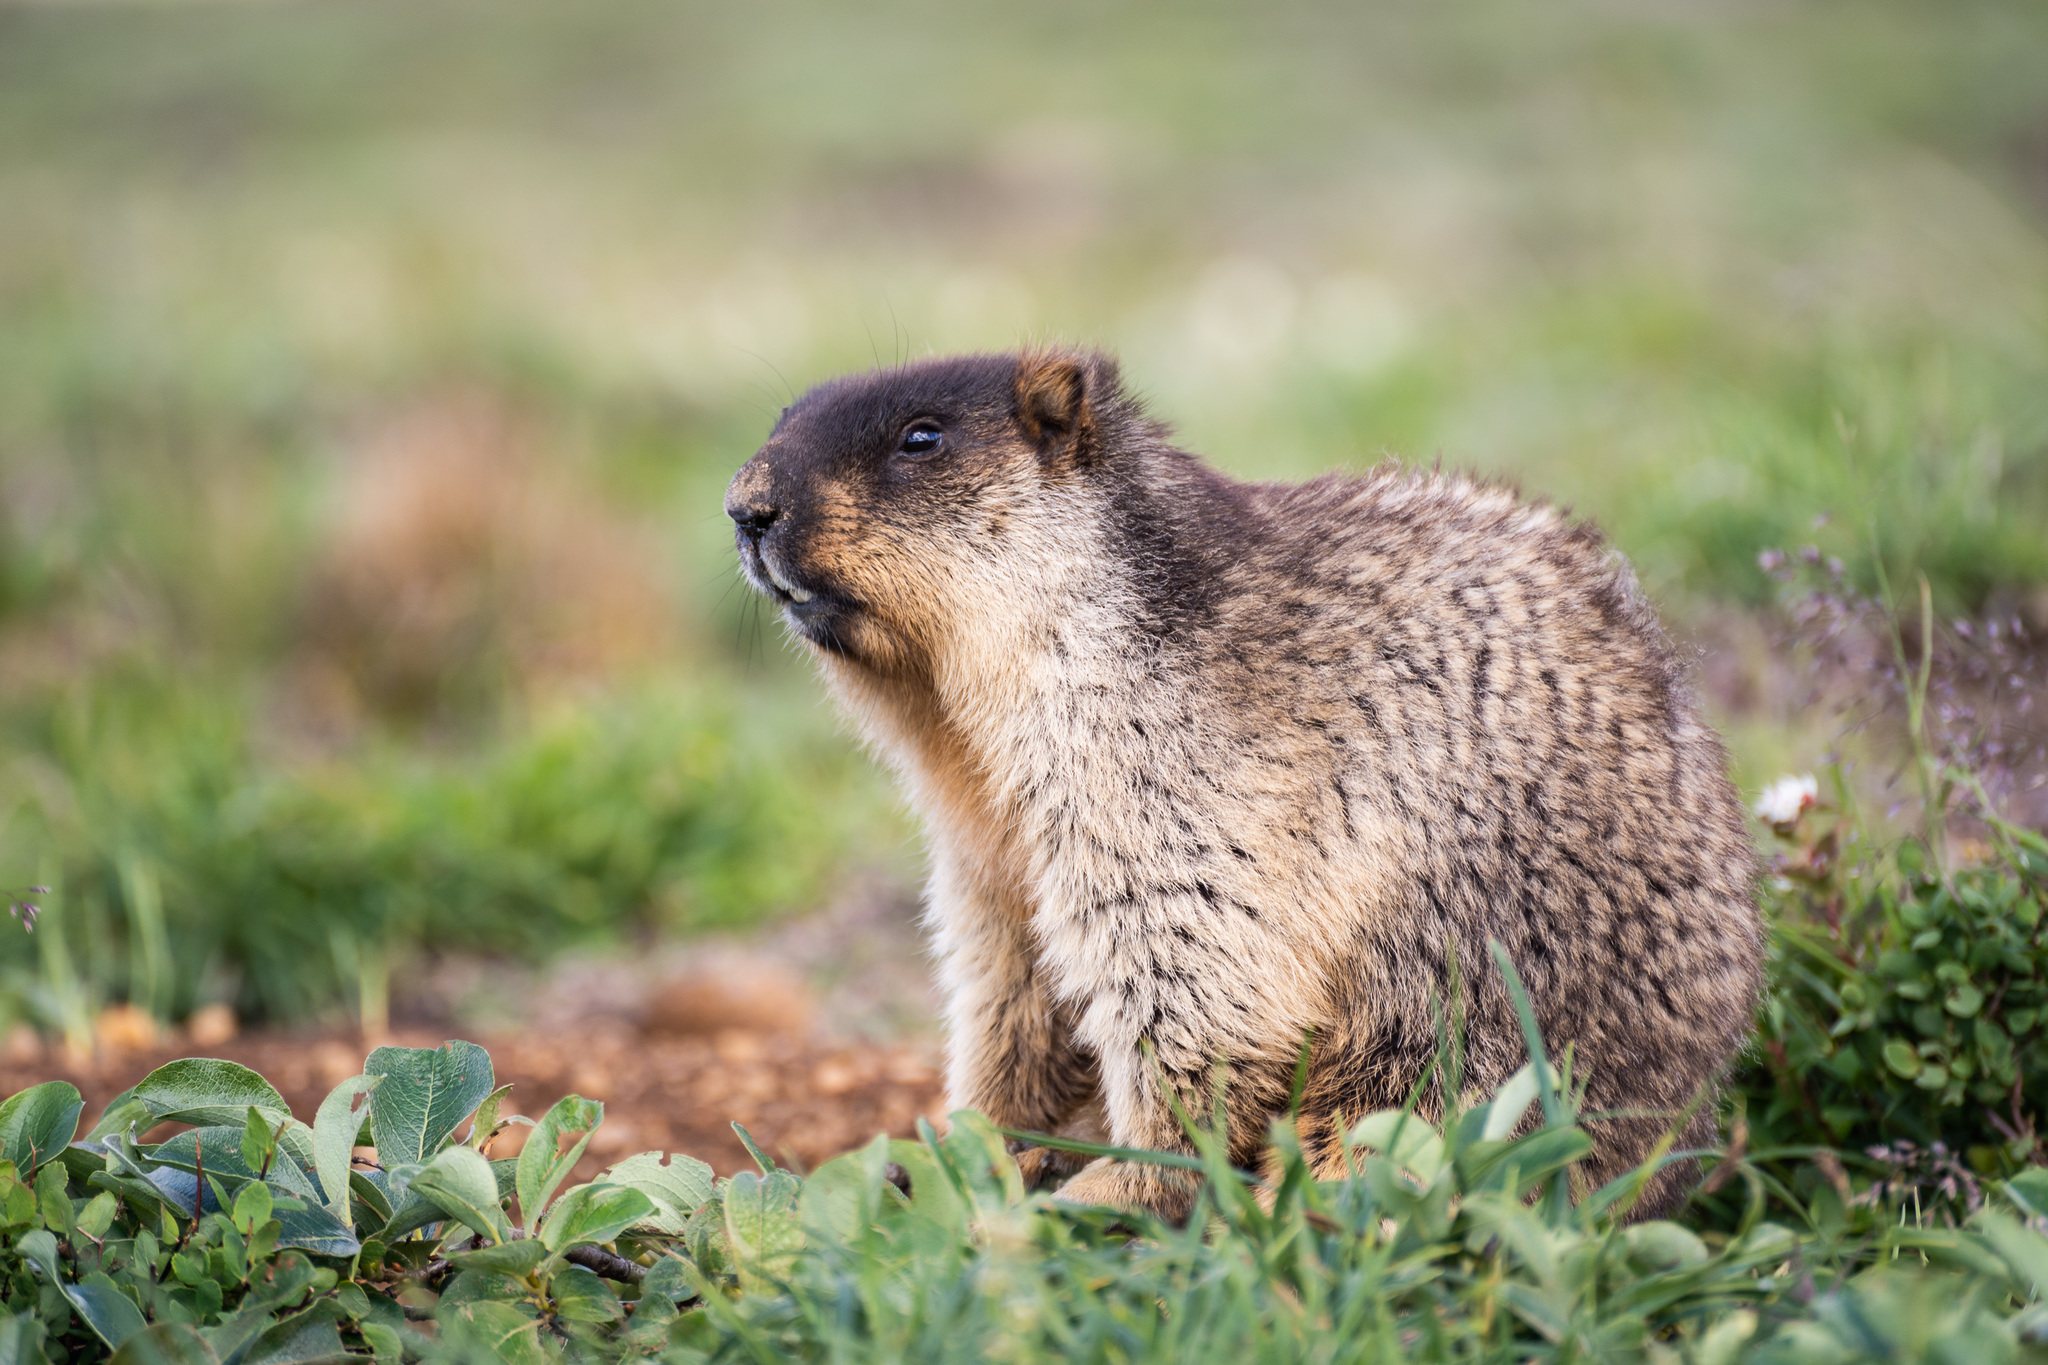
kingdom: Animalia
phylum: Chordata
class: Mammalia
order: Rodentia
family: Sciuridae
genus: Marmota
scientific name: Marmota camtschatica
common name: Black-capped marmot
